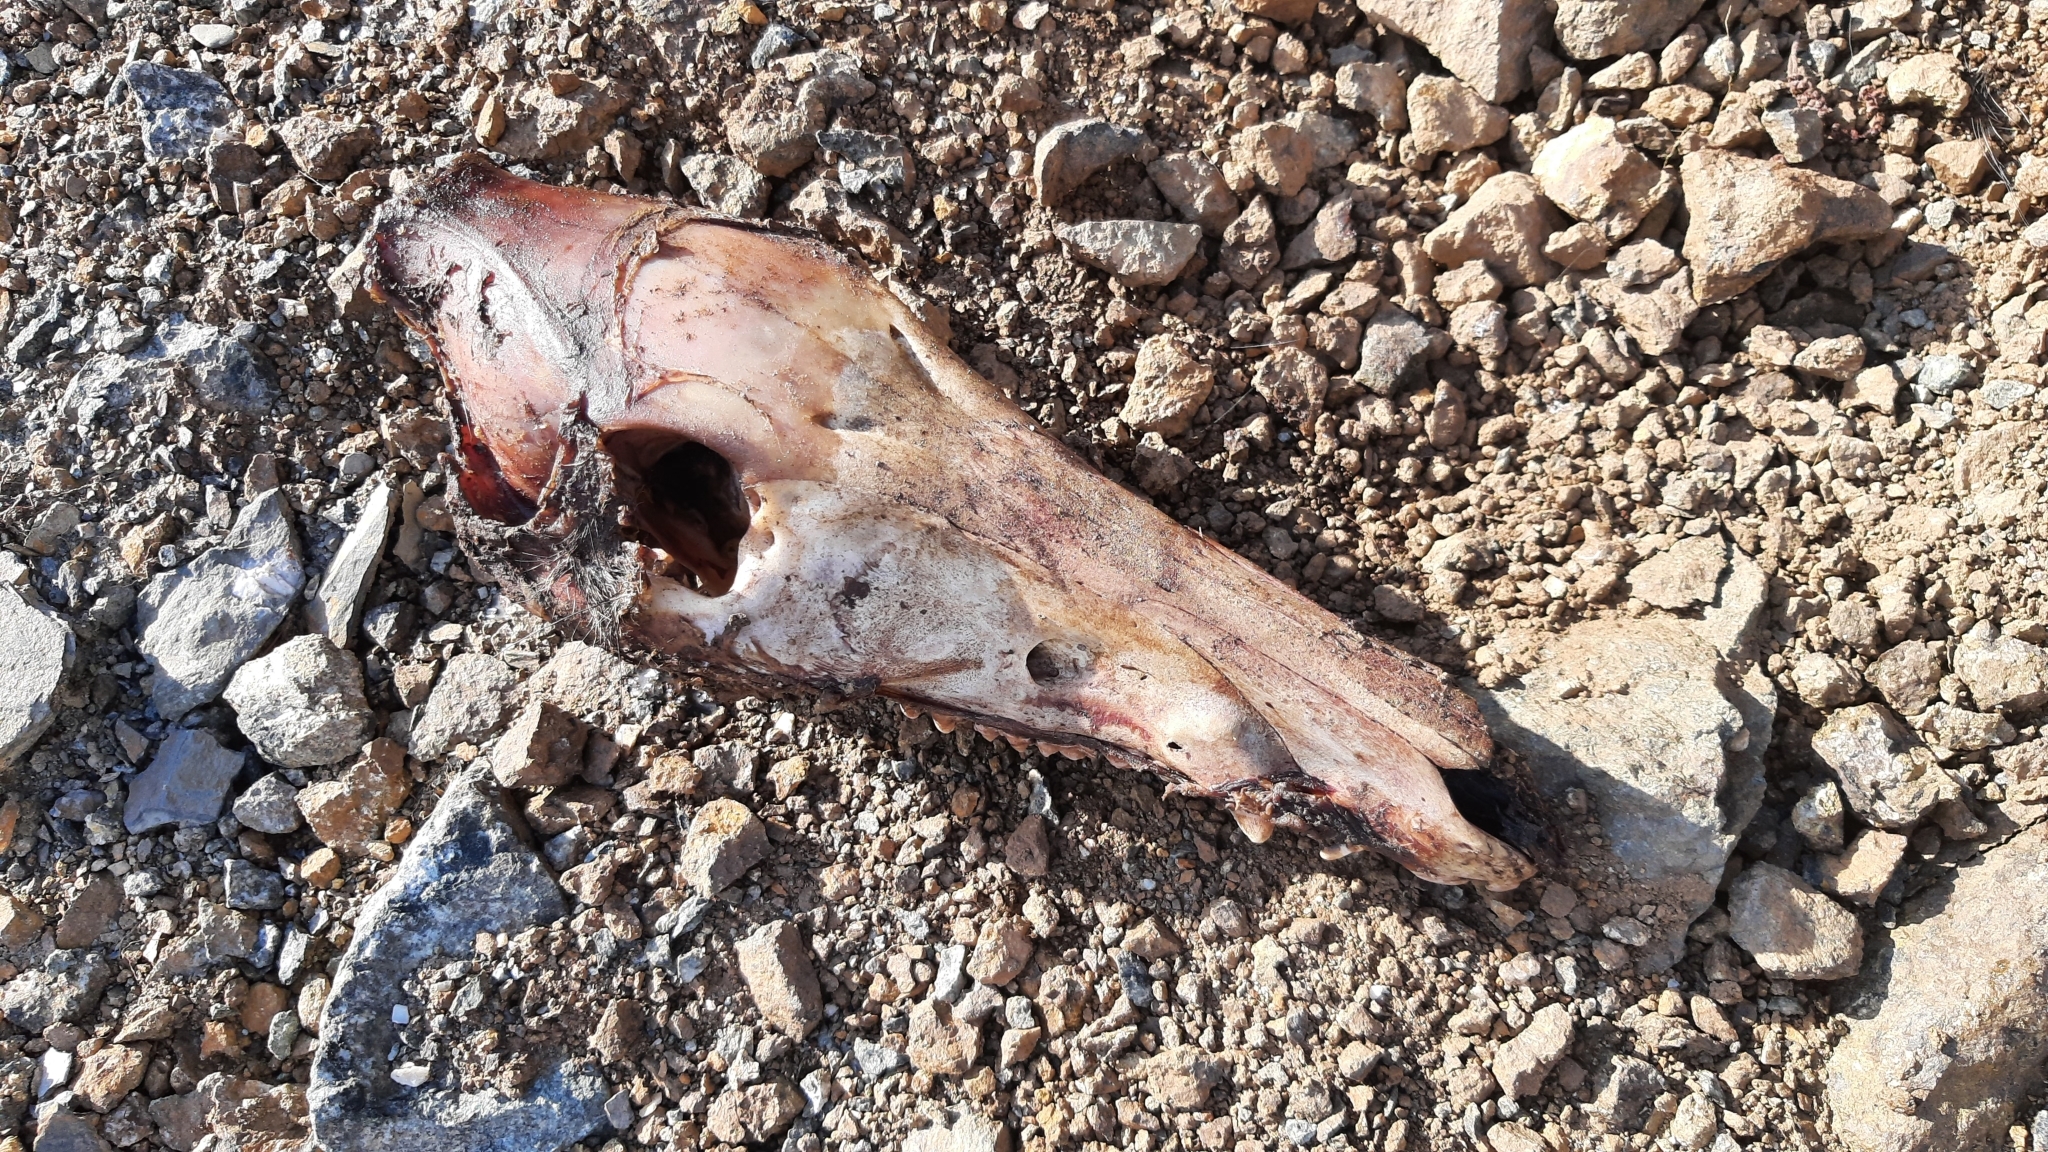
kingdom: Animalia
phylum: Chordata
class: Mammalia
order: Artiodactyla
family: Suidae
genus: Sus
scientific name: Sus scrofa
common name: Wild boar
